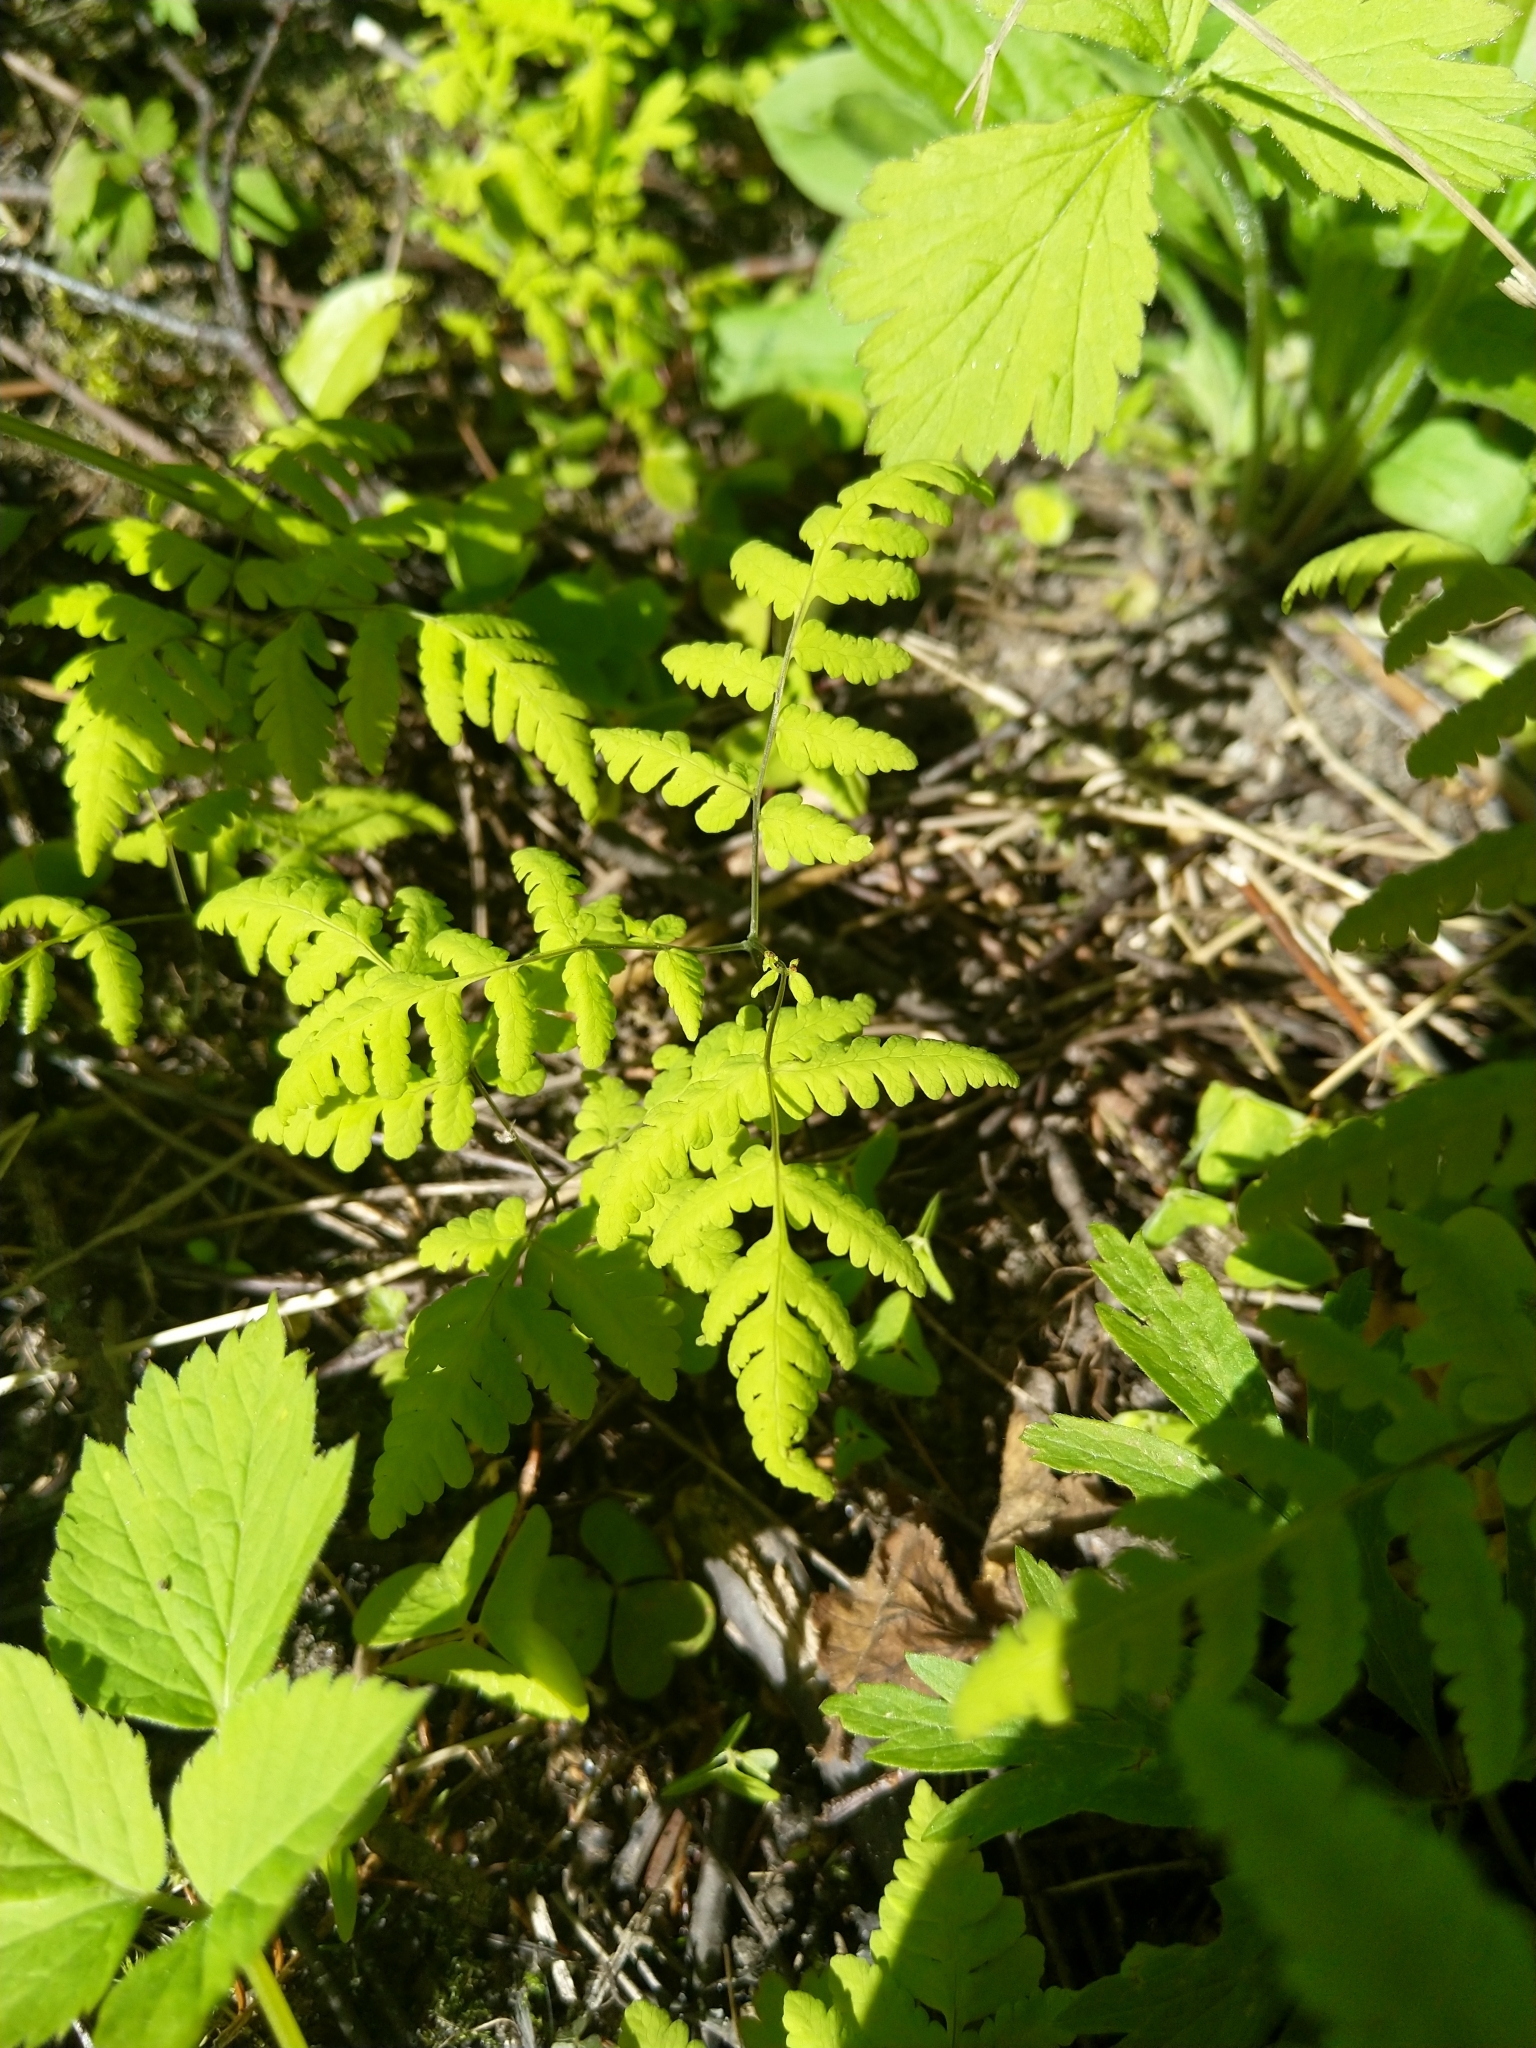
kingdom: Plantae
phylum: Tracheophyta
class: Polypodiopsida
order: Polypodiales
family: Cystopteridaceae
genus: Gymnocarpium
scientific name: Gymnocarpium dryopteris
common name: Oak fern
